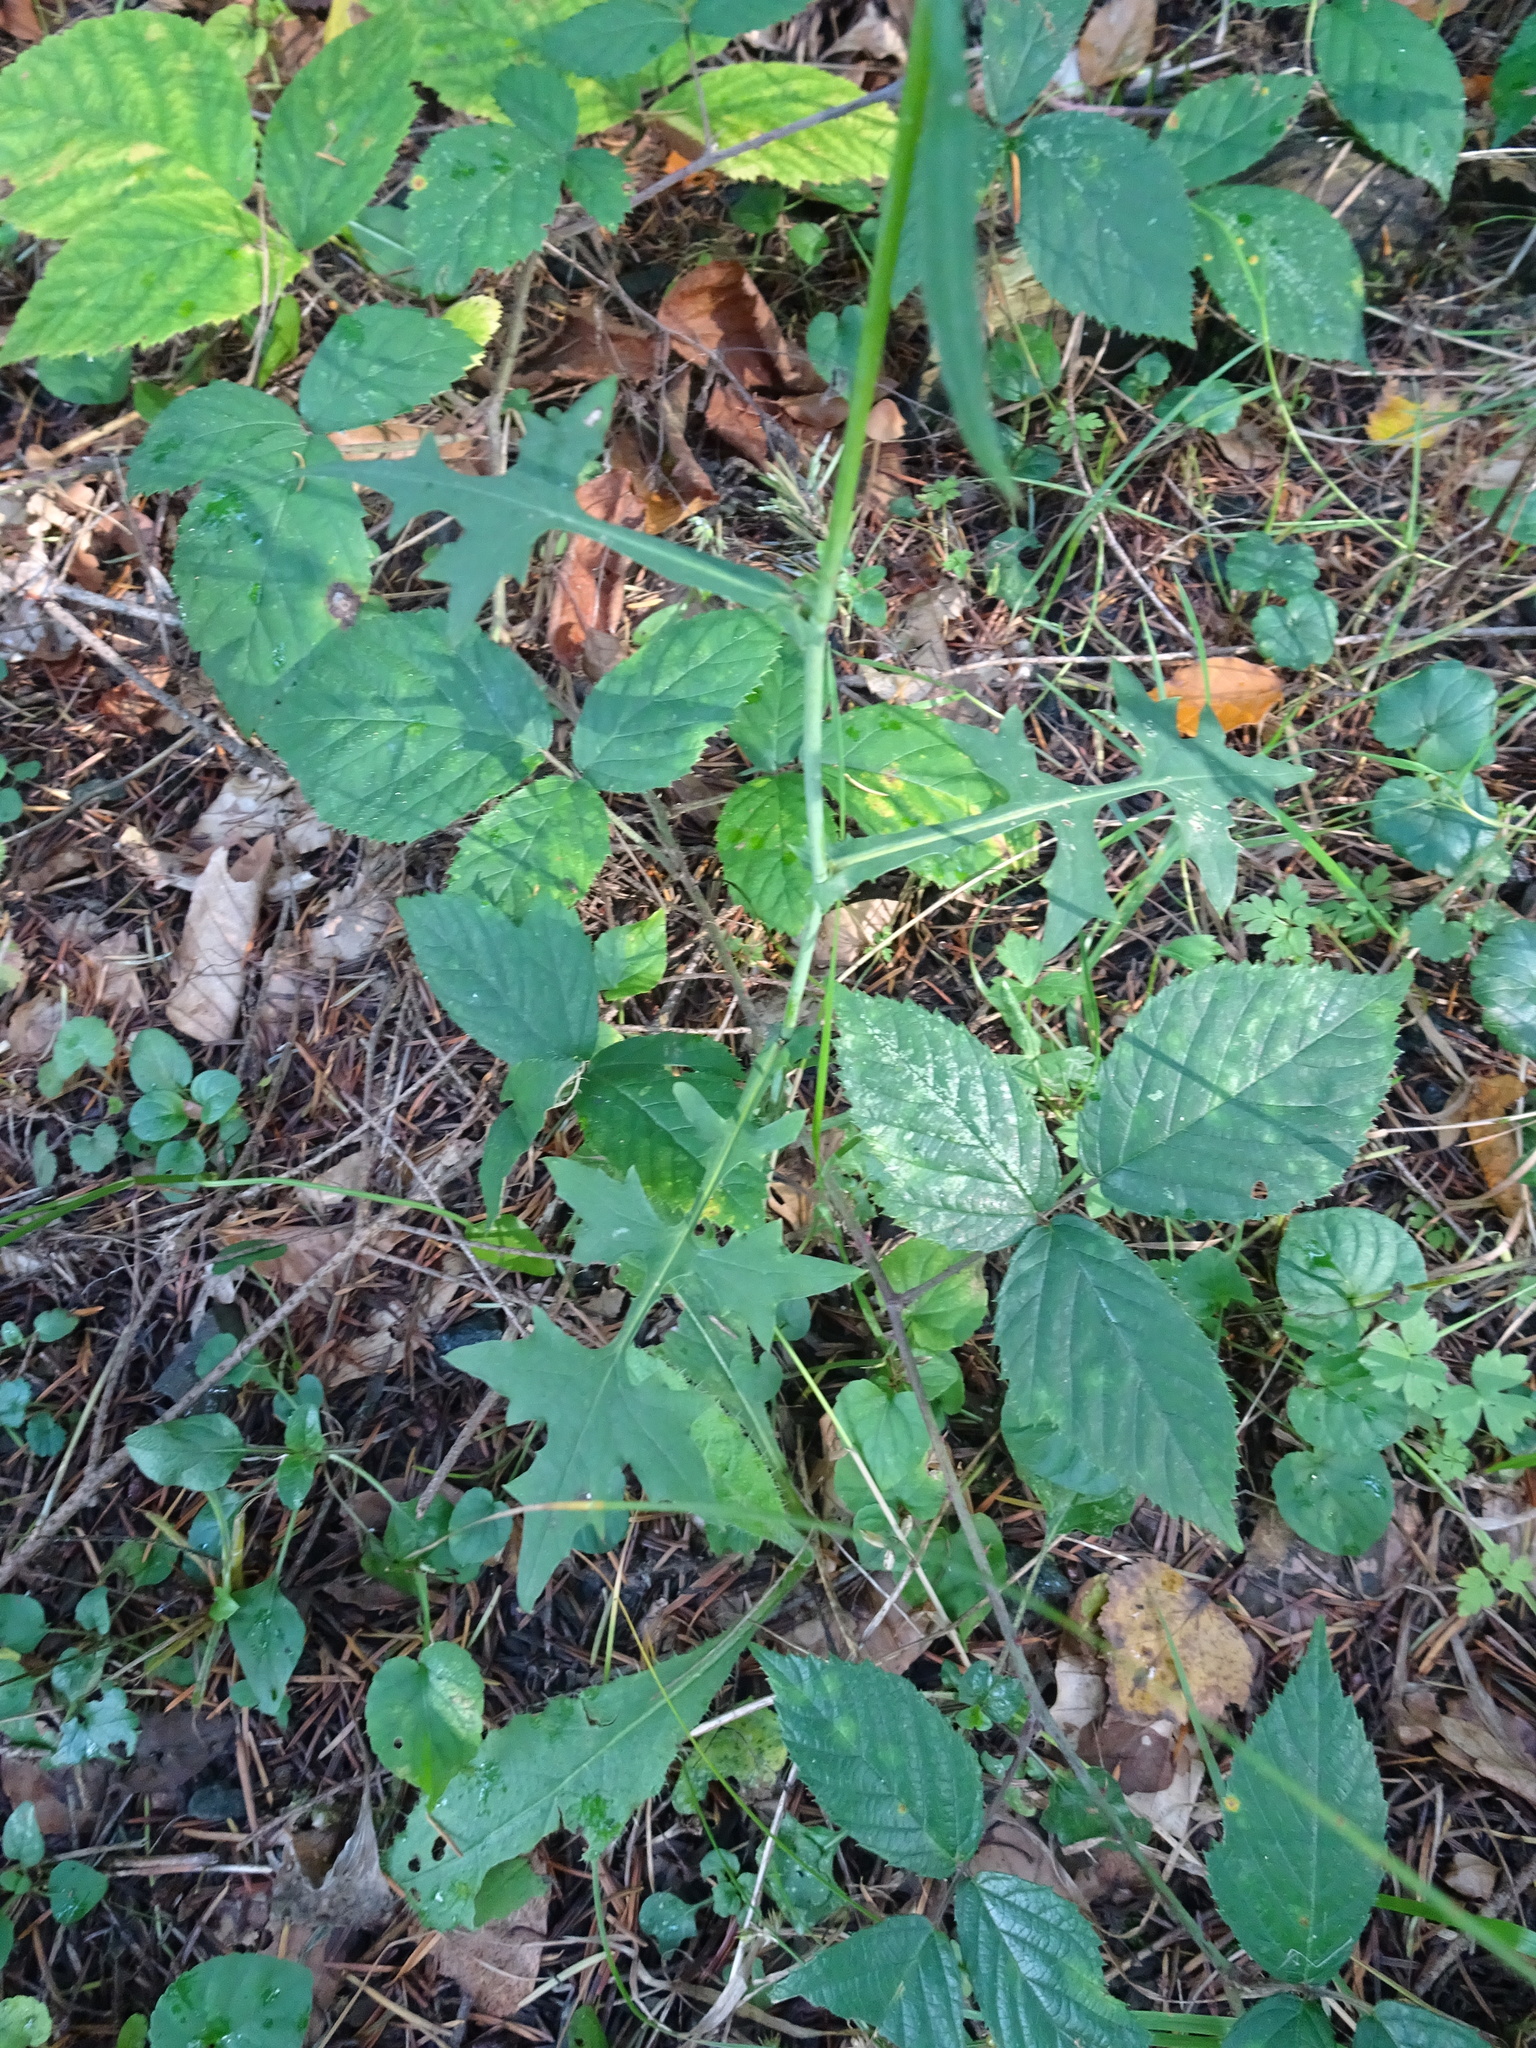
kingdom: Plantae
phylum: Tracheophyta
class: Magnoliopsida
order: Asterales
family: Asteraceae
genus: Mycelis
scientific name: Mycelis muralis
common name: Wall lettuce
